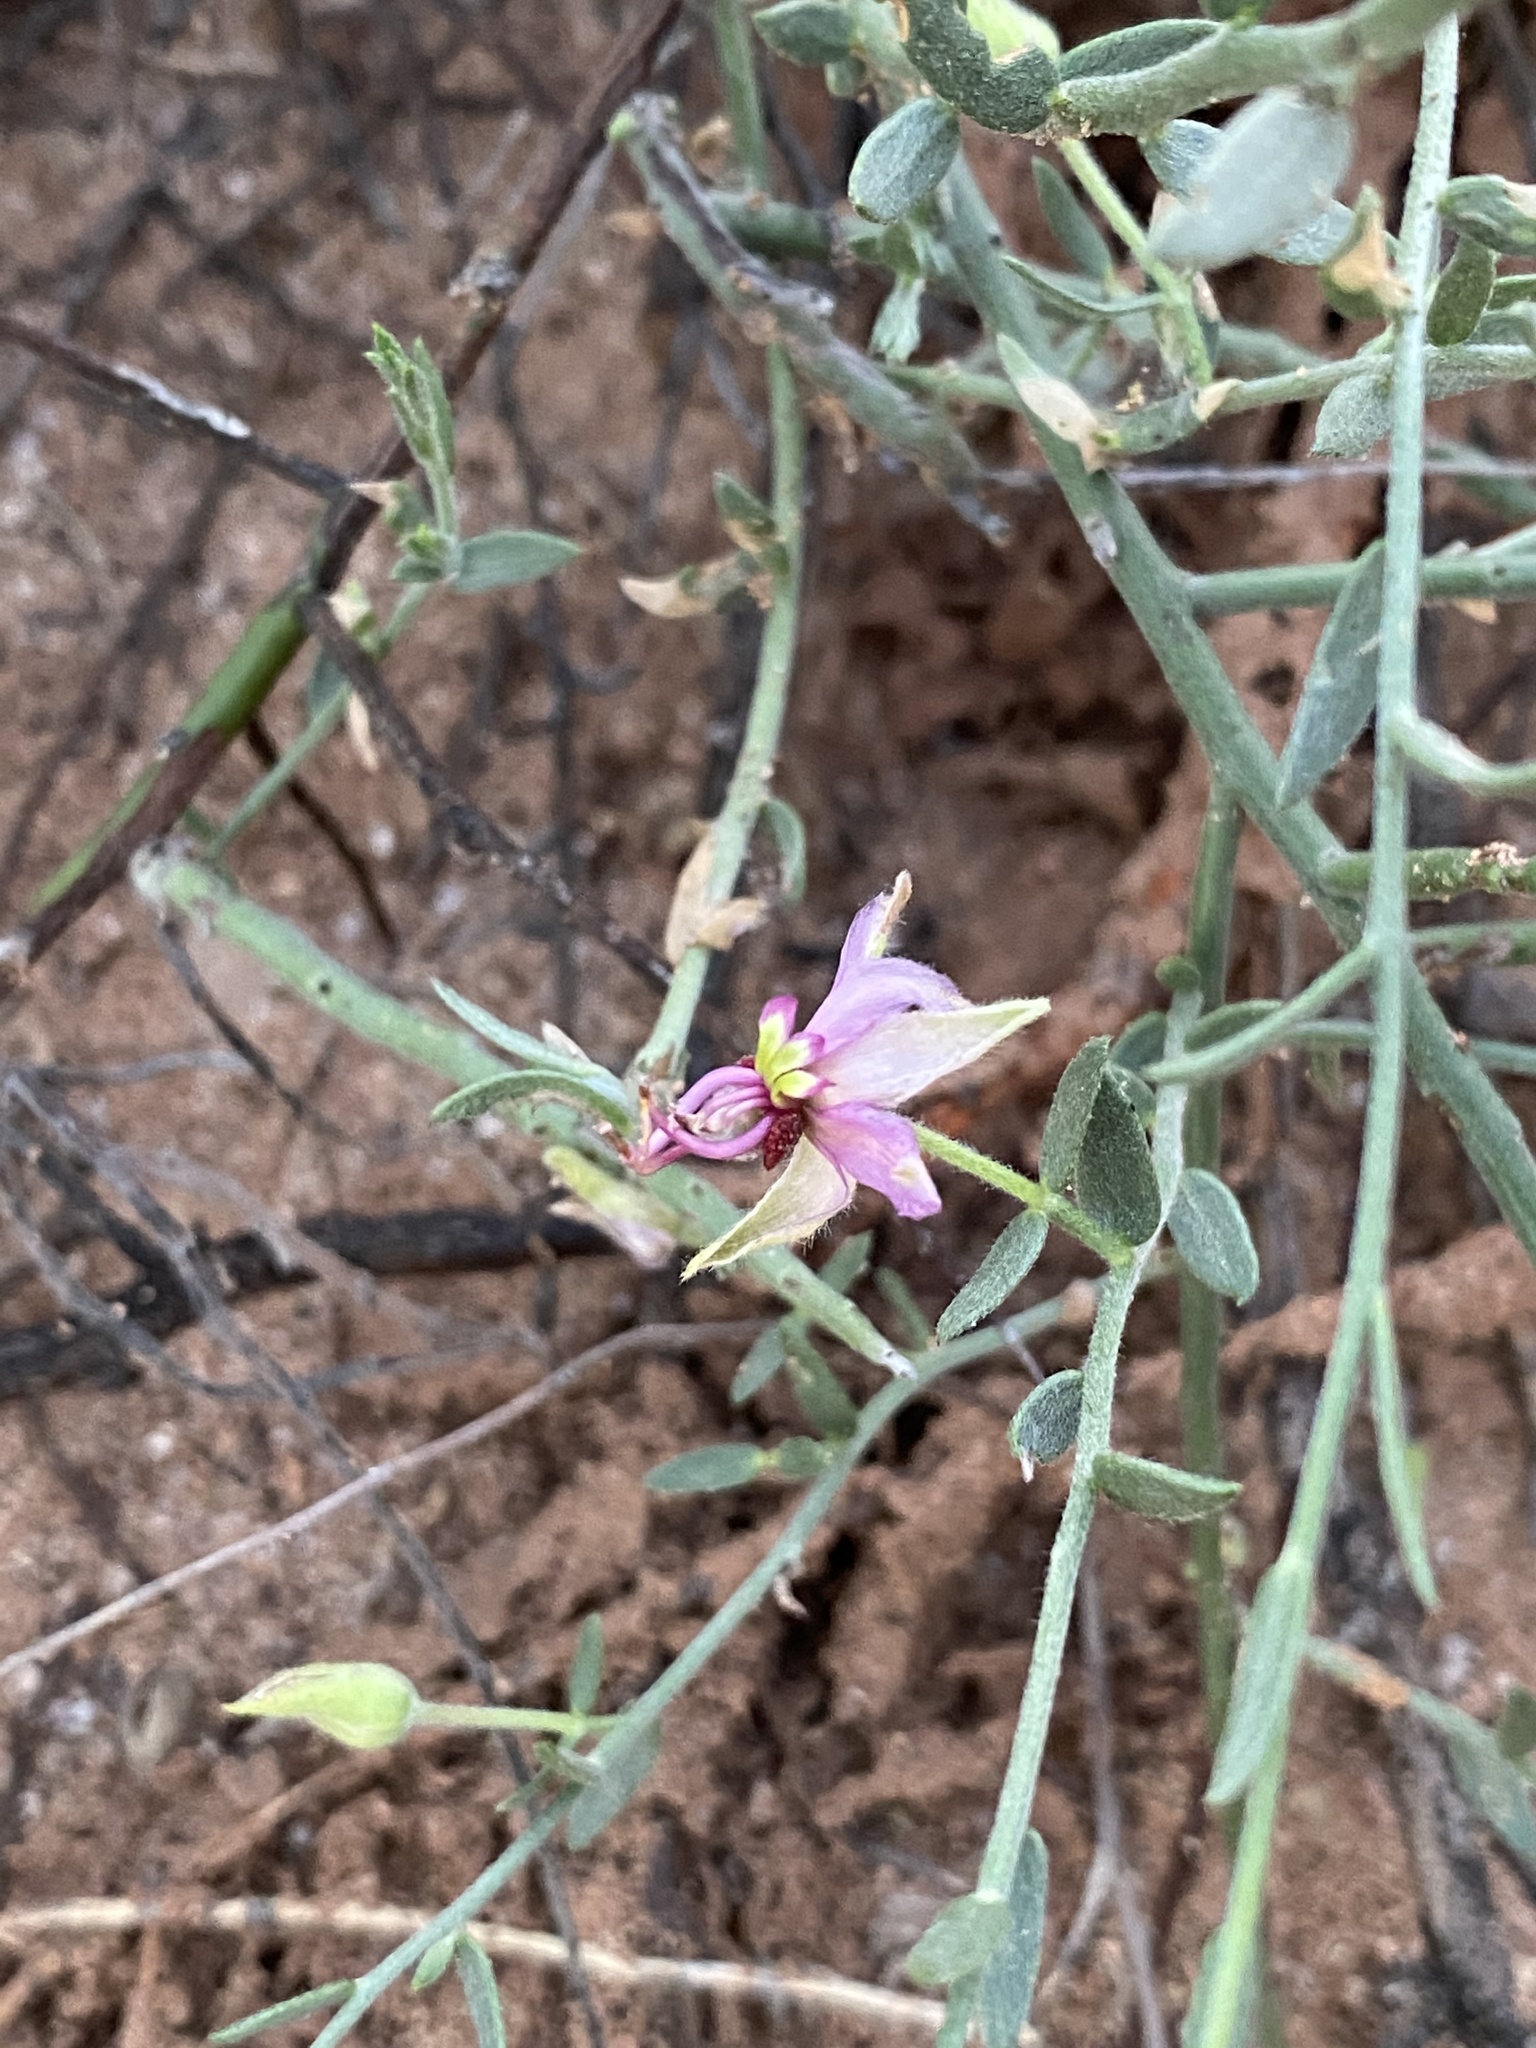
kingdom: Plantae
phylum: Tracheophyta
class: Magnoliopsida
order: Zygophyllales
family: Krameriaceae
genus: Krameria
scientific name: Krameria erecta
